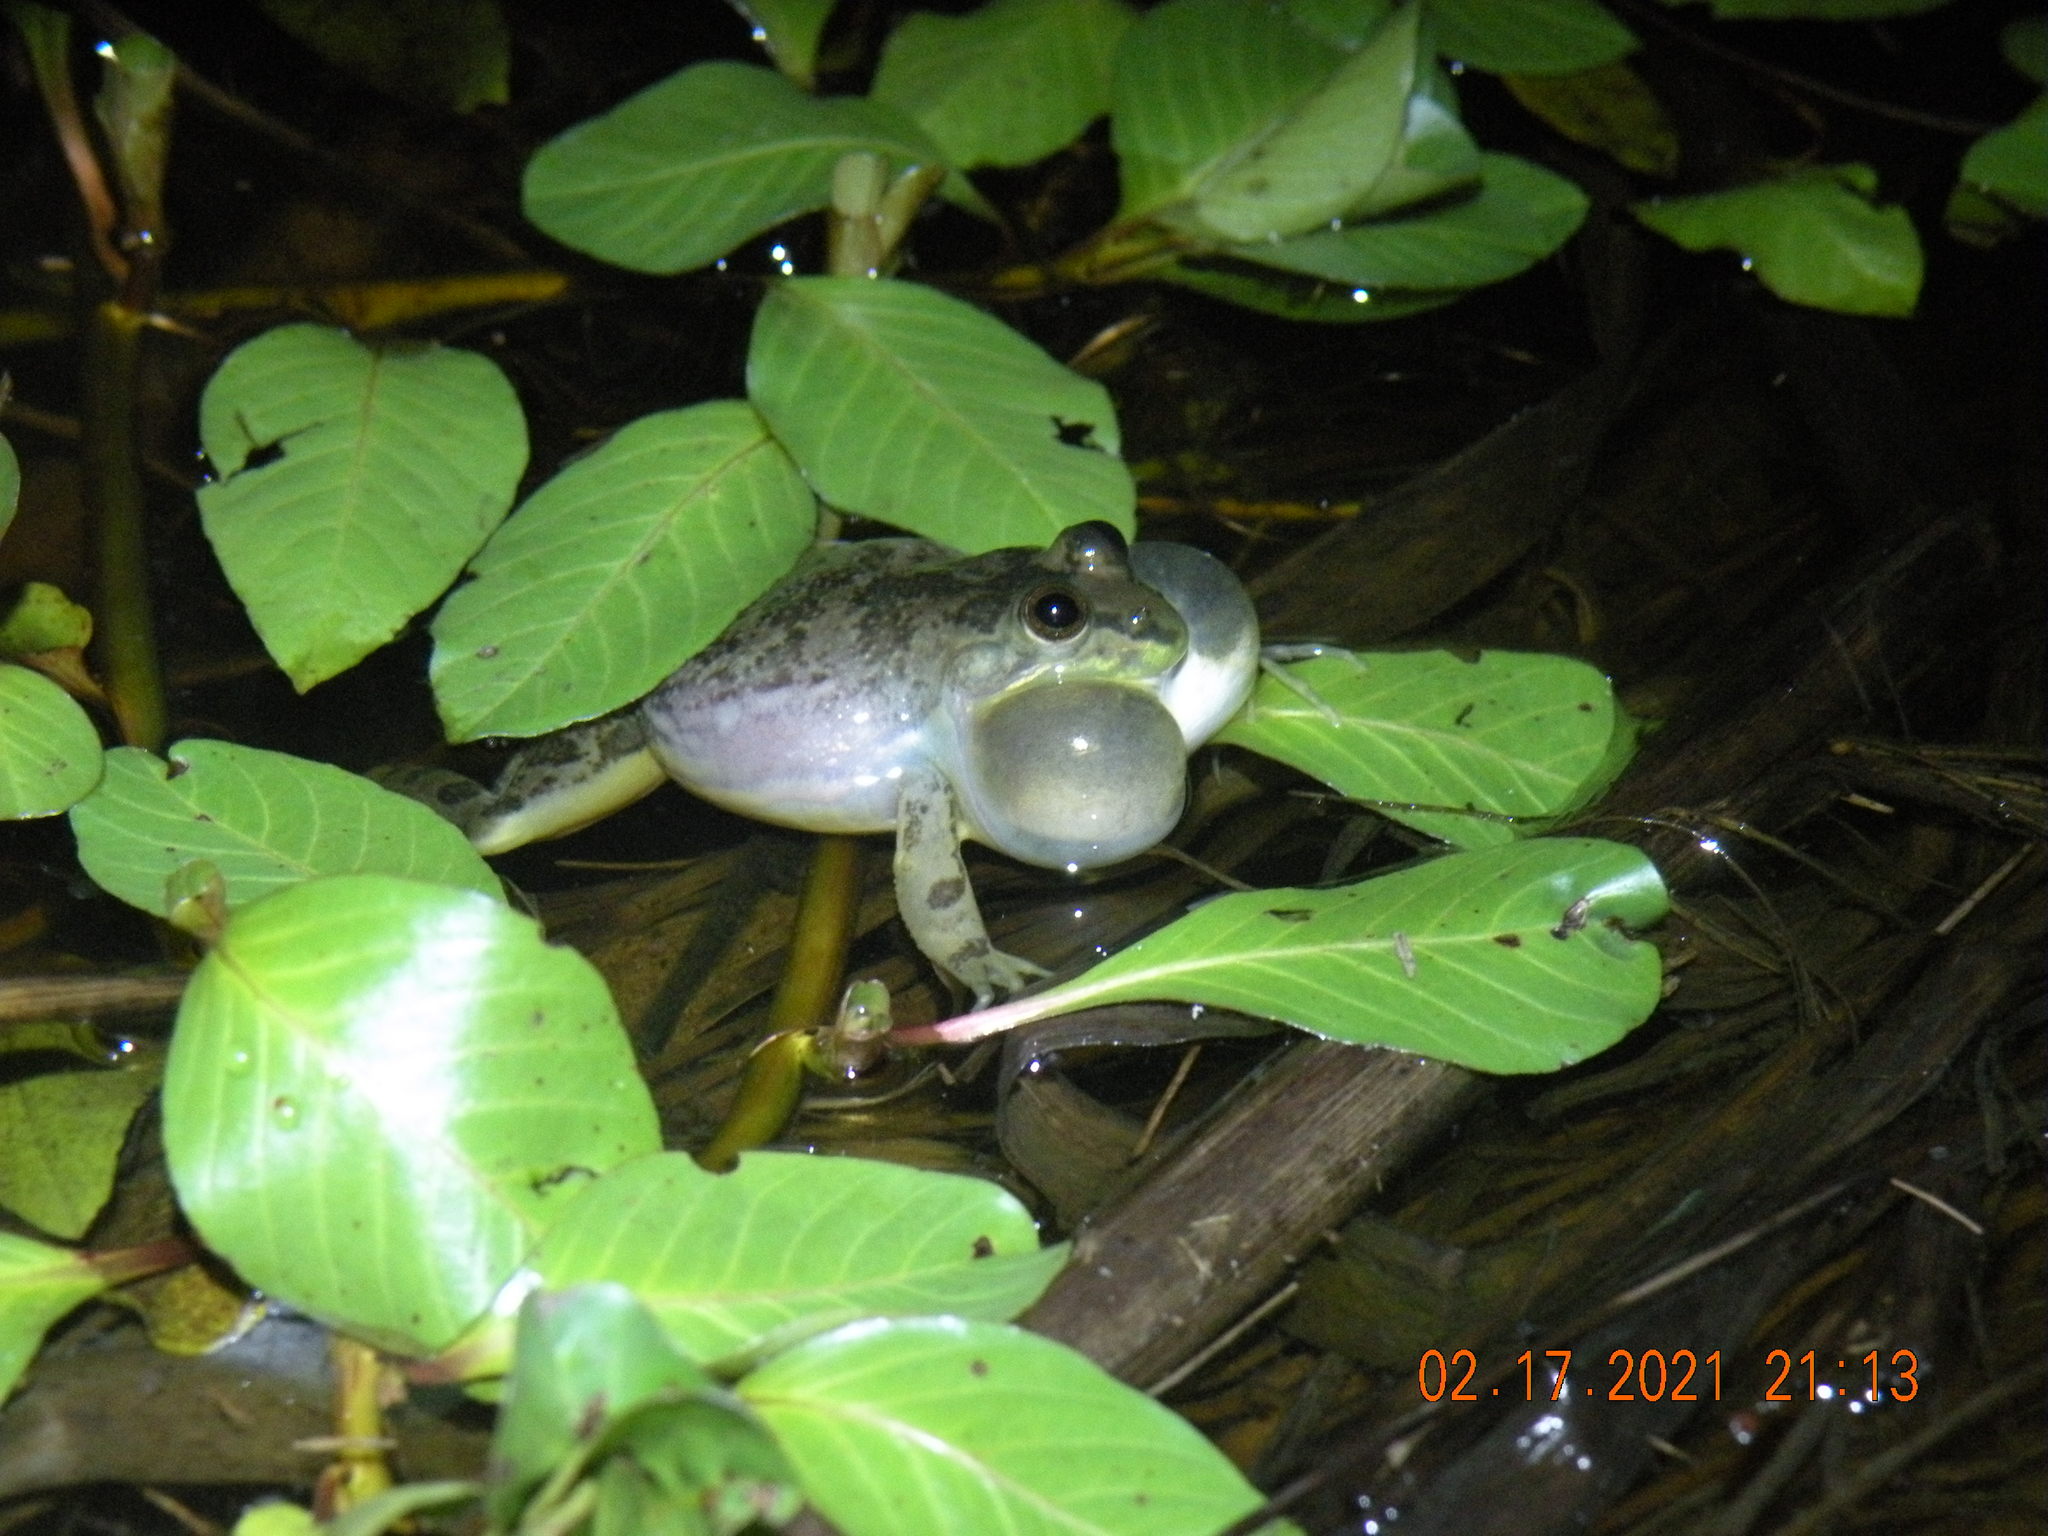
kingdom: Animalia
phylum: Chordata
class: Amphibia
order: Anura
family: Hylidae
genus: Pseudis
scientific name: Pseudis minuta
